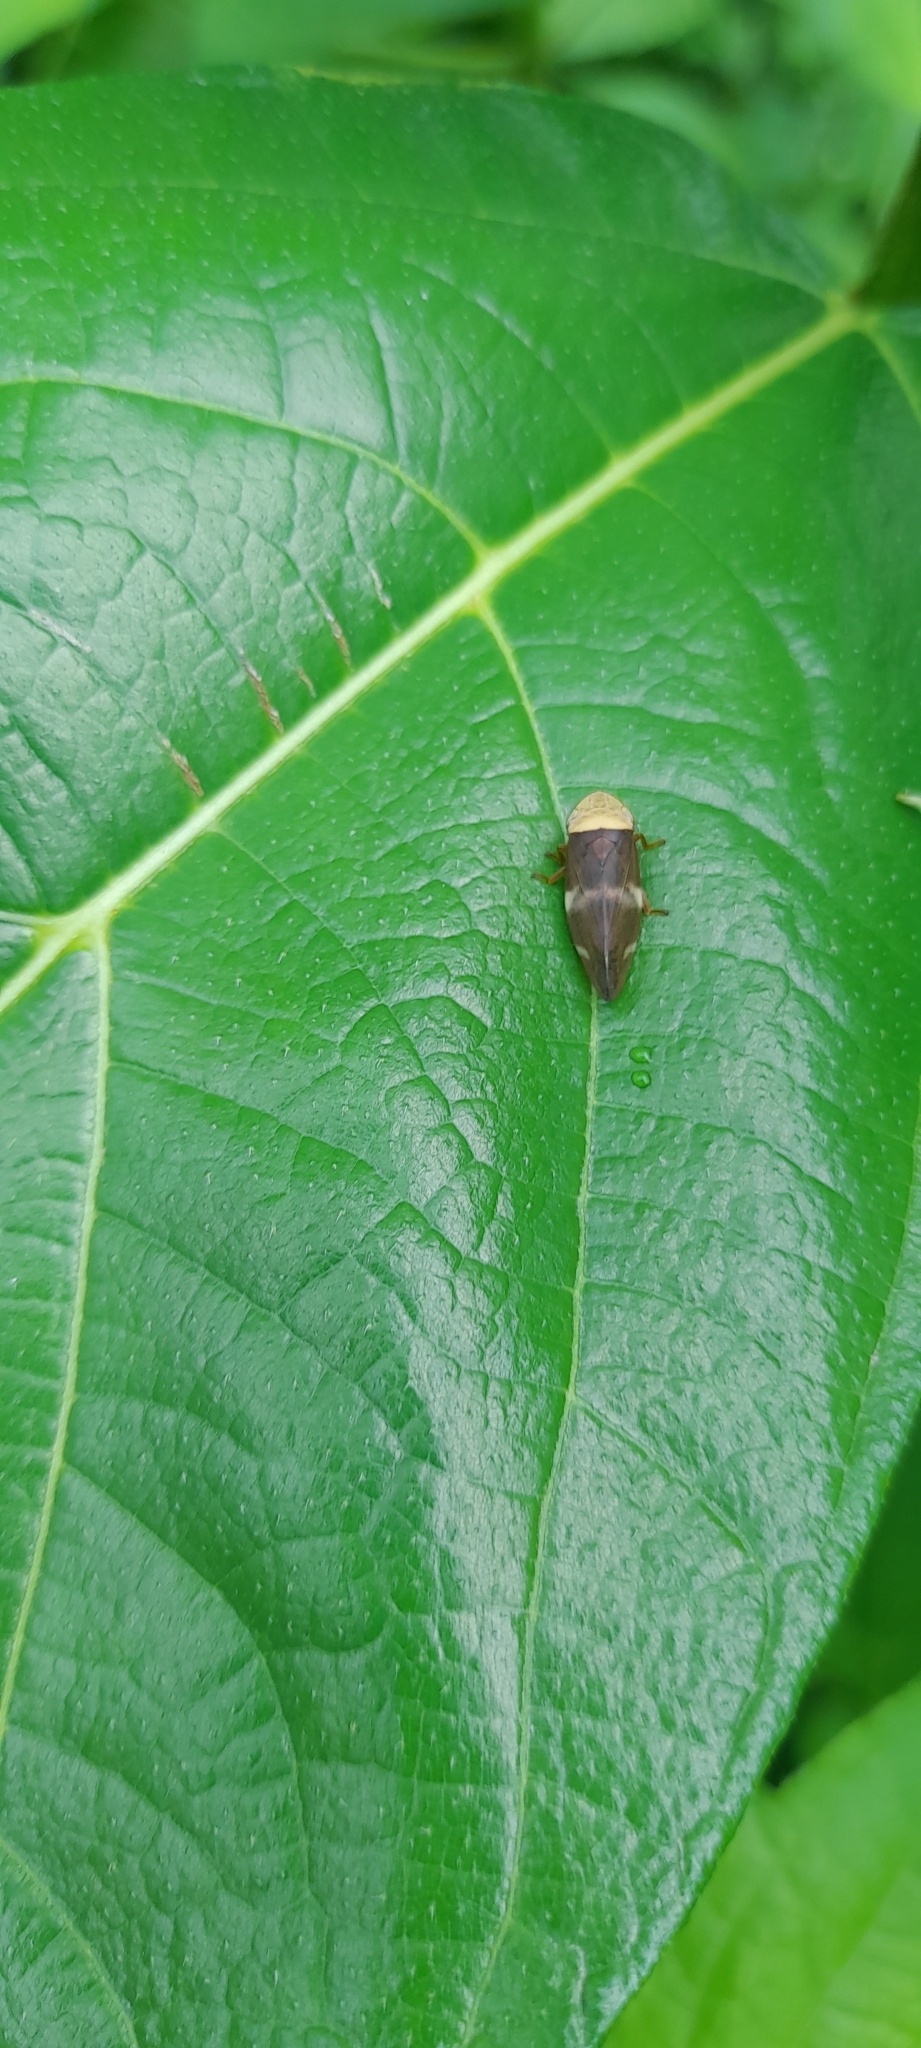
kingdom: Animalia
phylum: Arthropoda
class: Insecta
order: Hemiptera
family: Aphrophoridae
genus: Ptyelinellus
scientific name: Ptyelinellus praefractus
